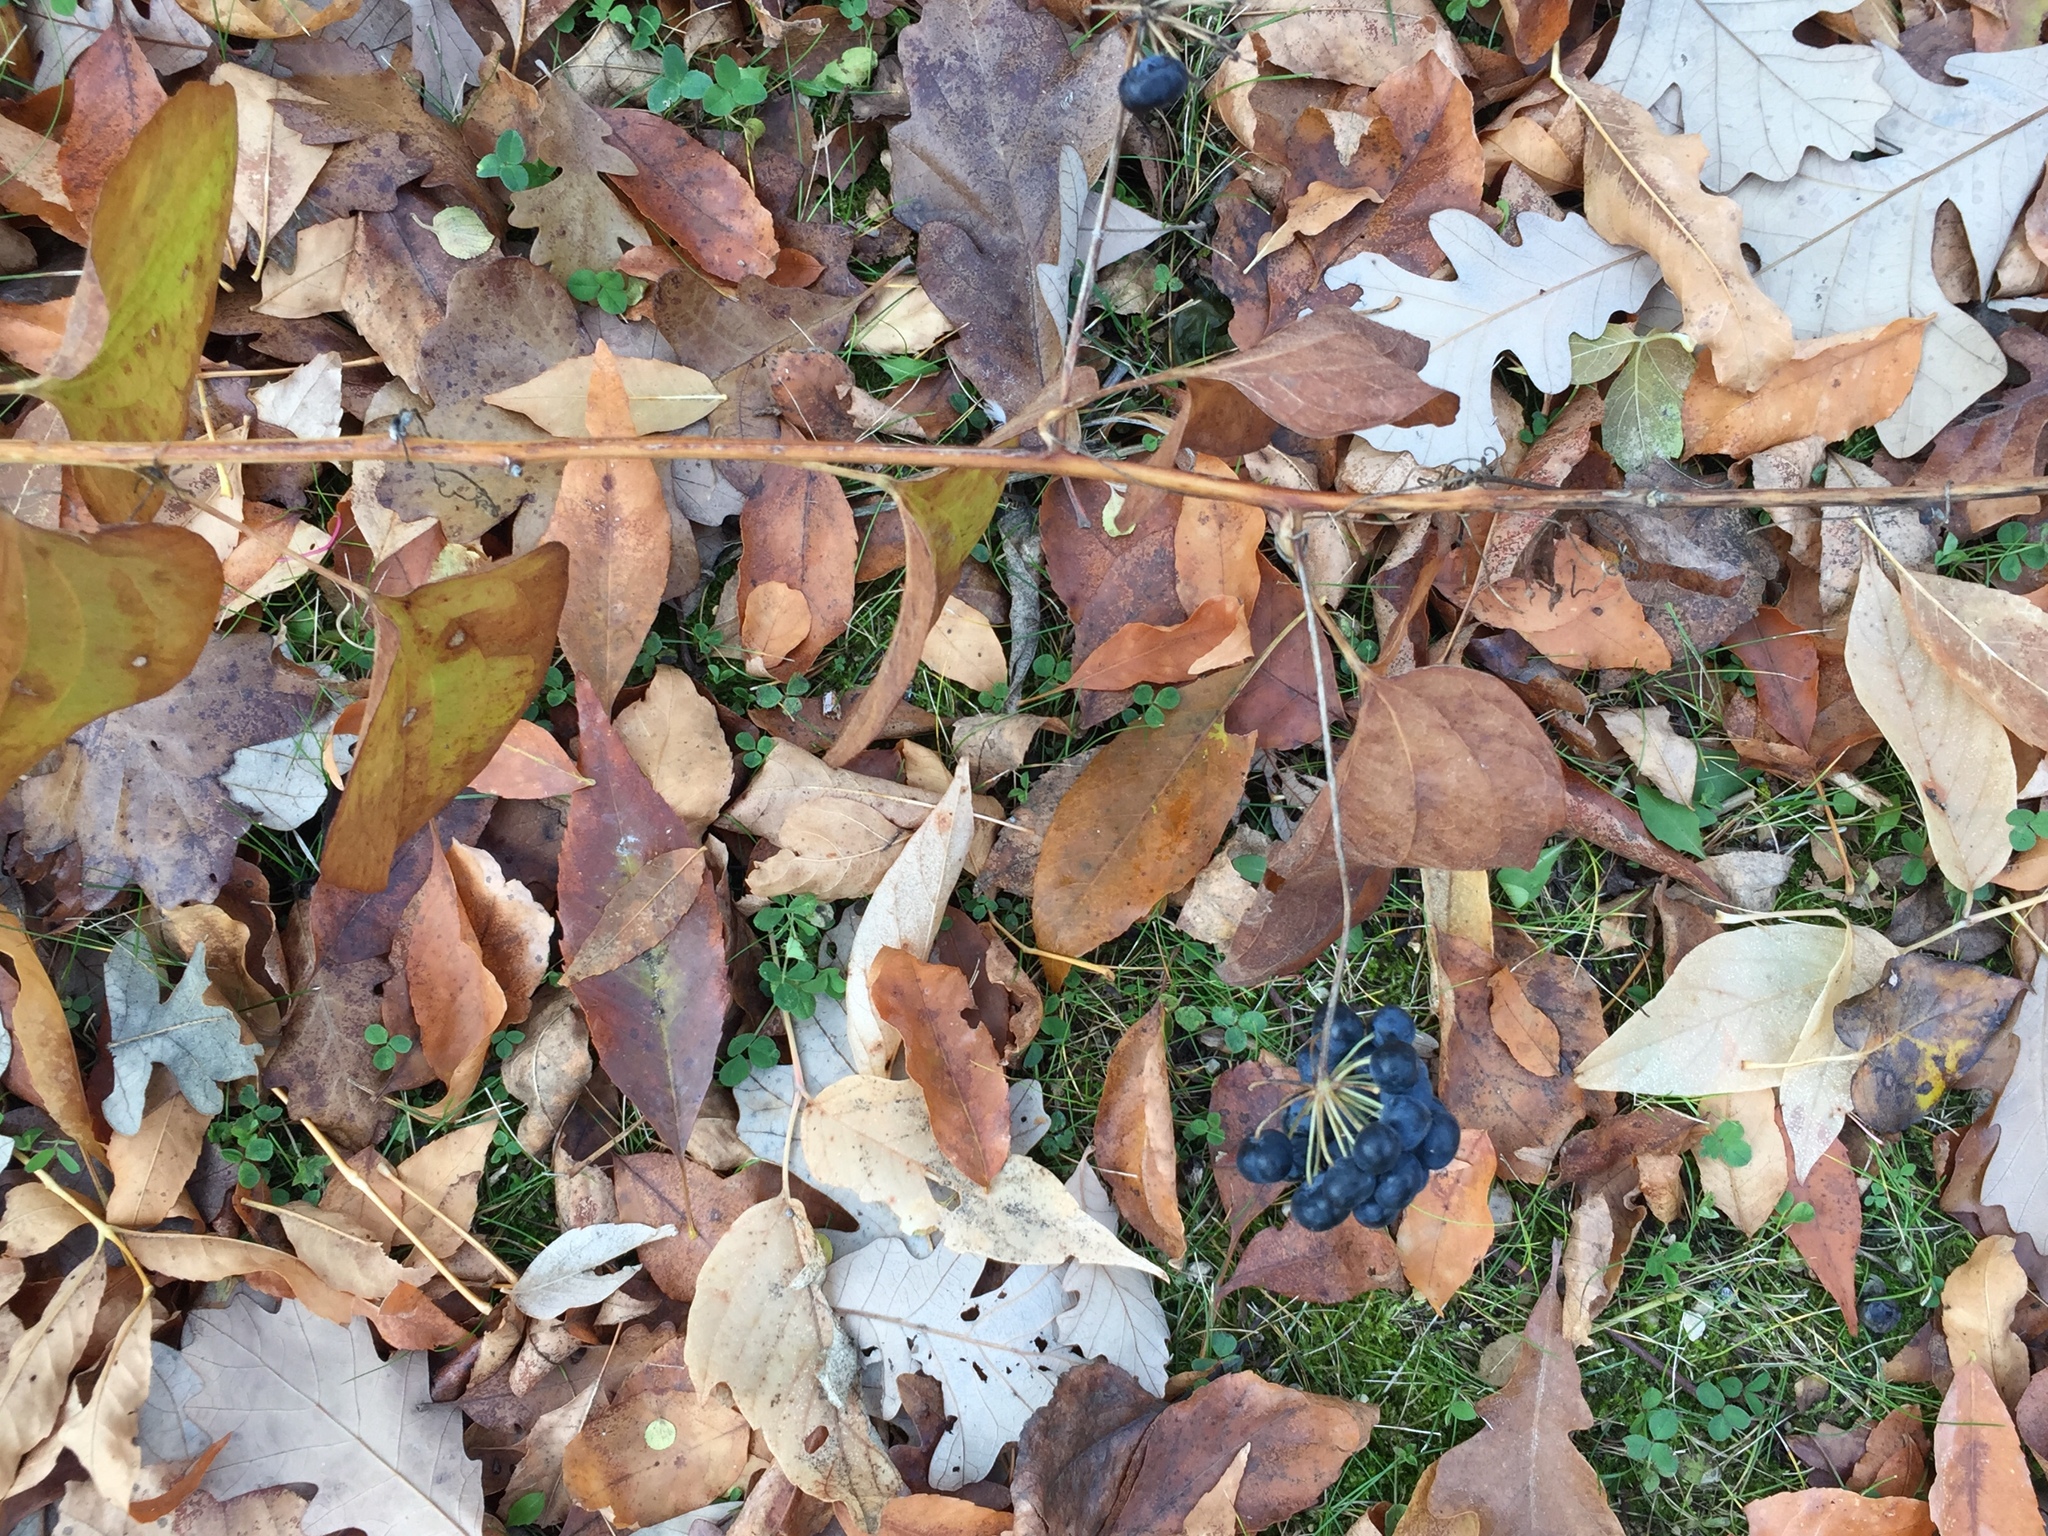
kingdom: Plantae
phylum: Tracheophyta
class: Liliopsida
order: Liliales
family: Smilacaceae
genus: Smilax
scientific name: Smilax lasioneura
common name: Blue ridge carrionflower
